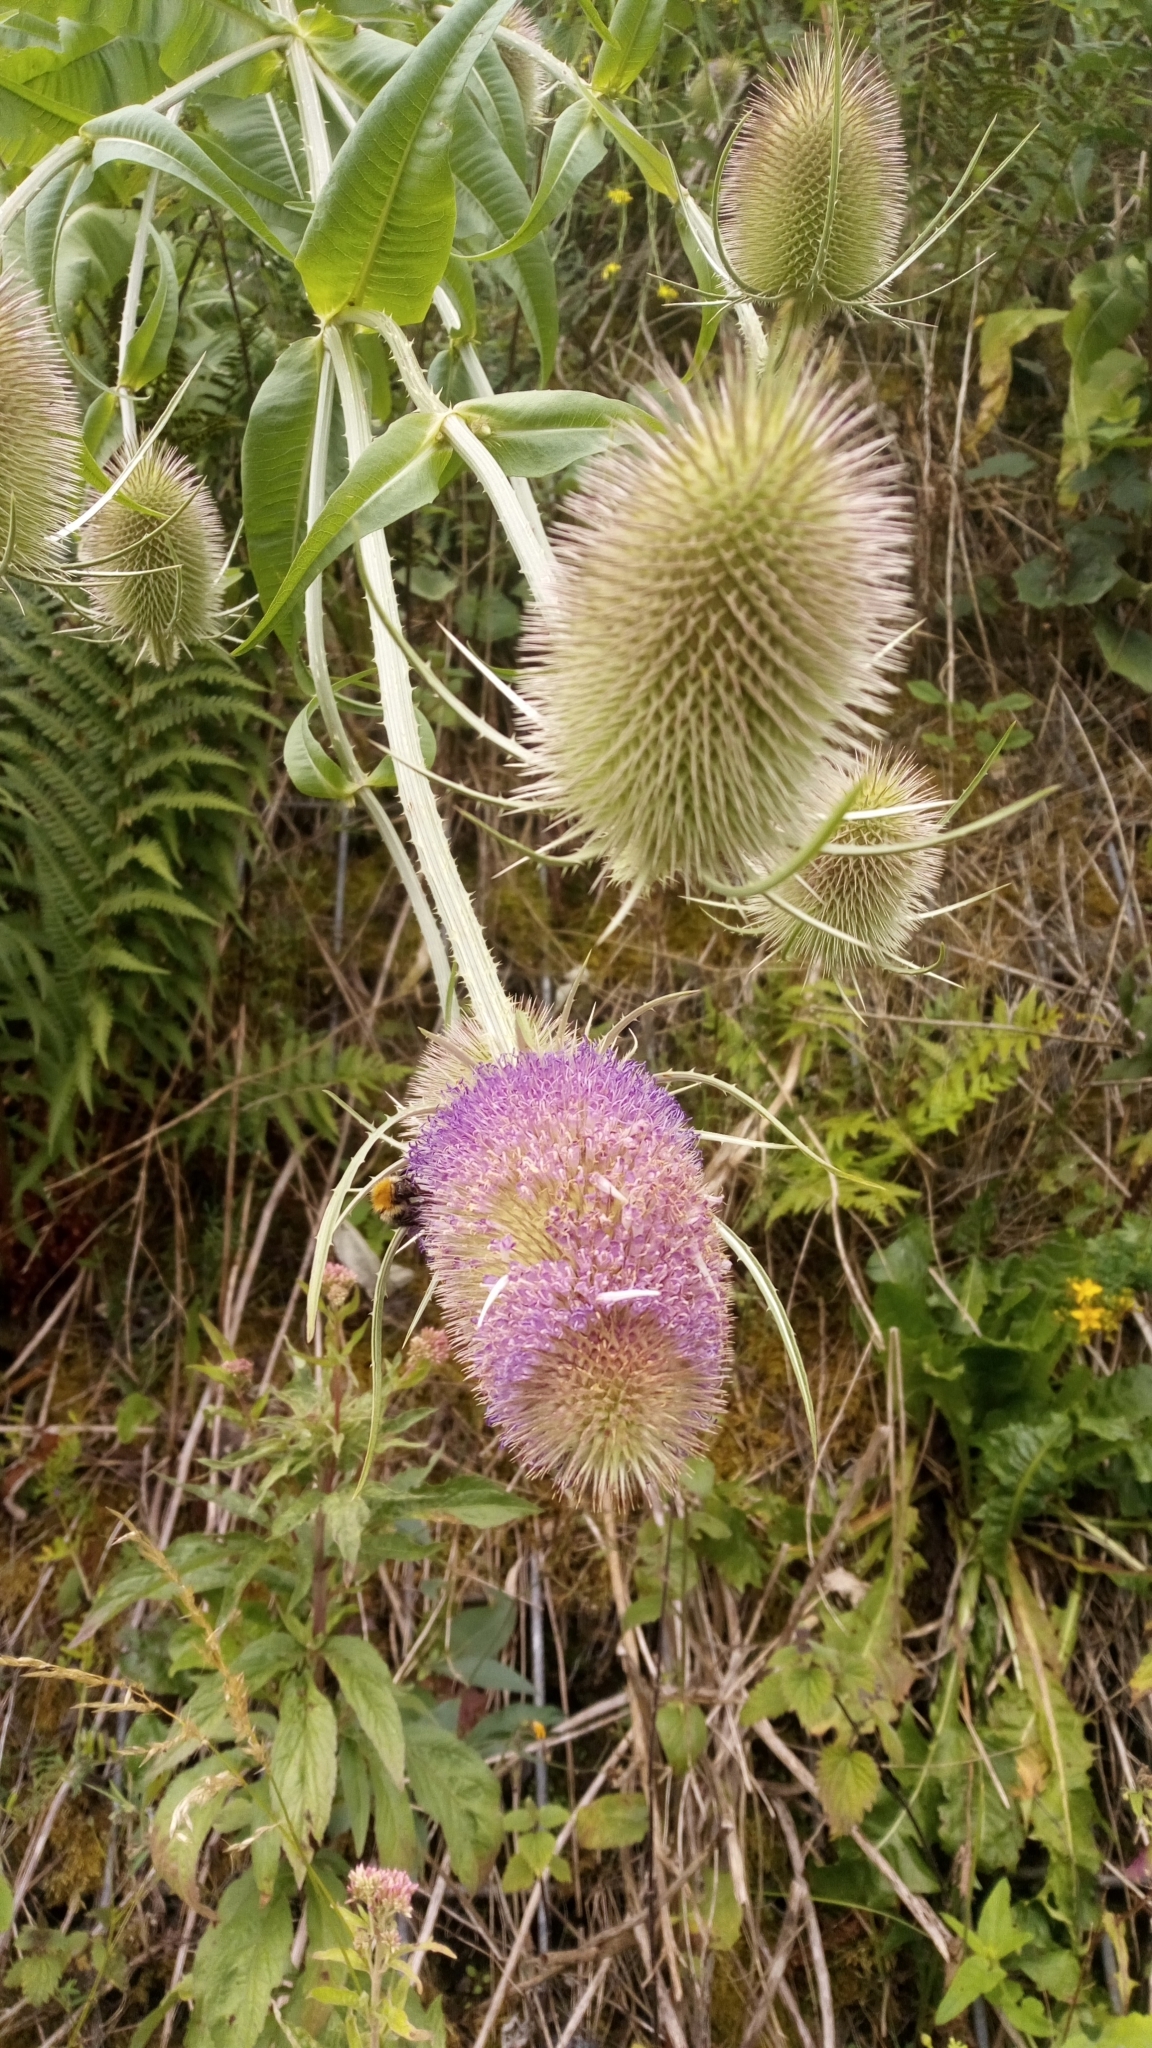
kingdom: Plantae
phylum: Tracheophyta
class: Magnoliopsida
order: Dipsacales
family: Caprifoliaceae
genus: Dipsacus
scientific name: Dipsacus fullonum
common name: Teasel
